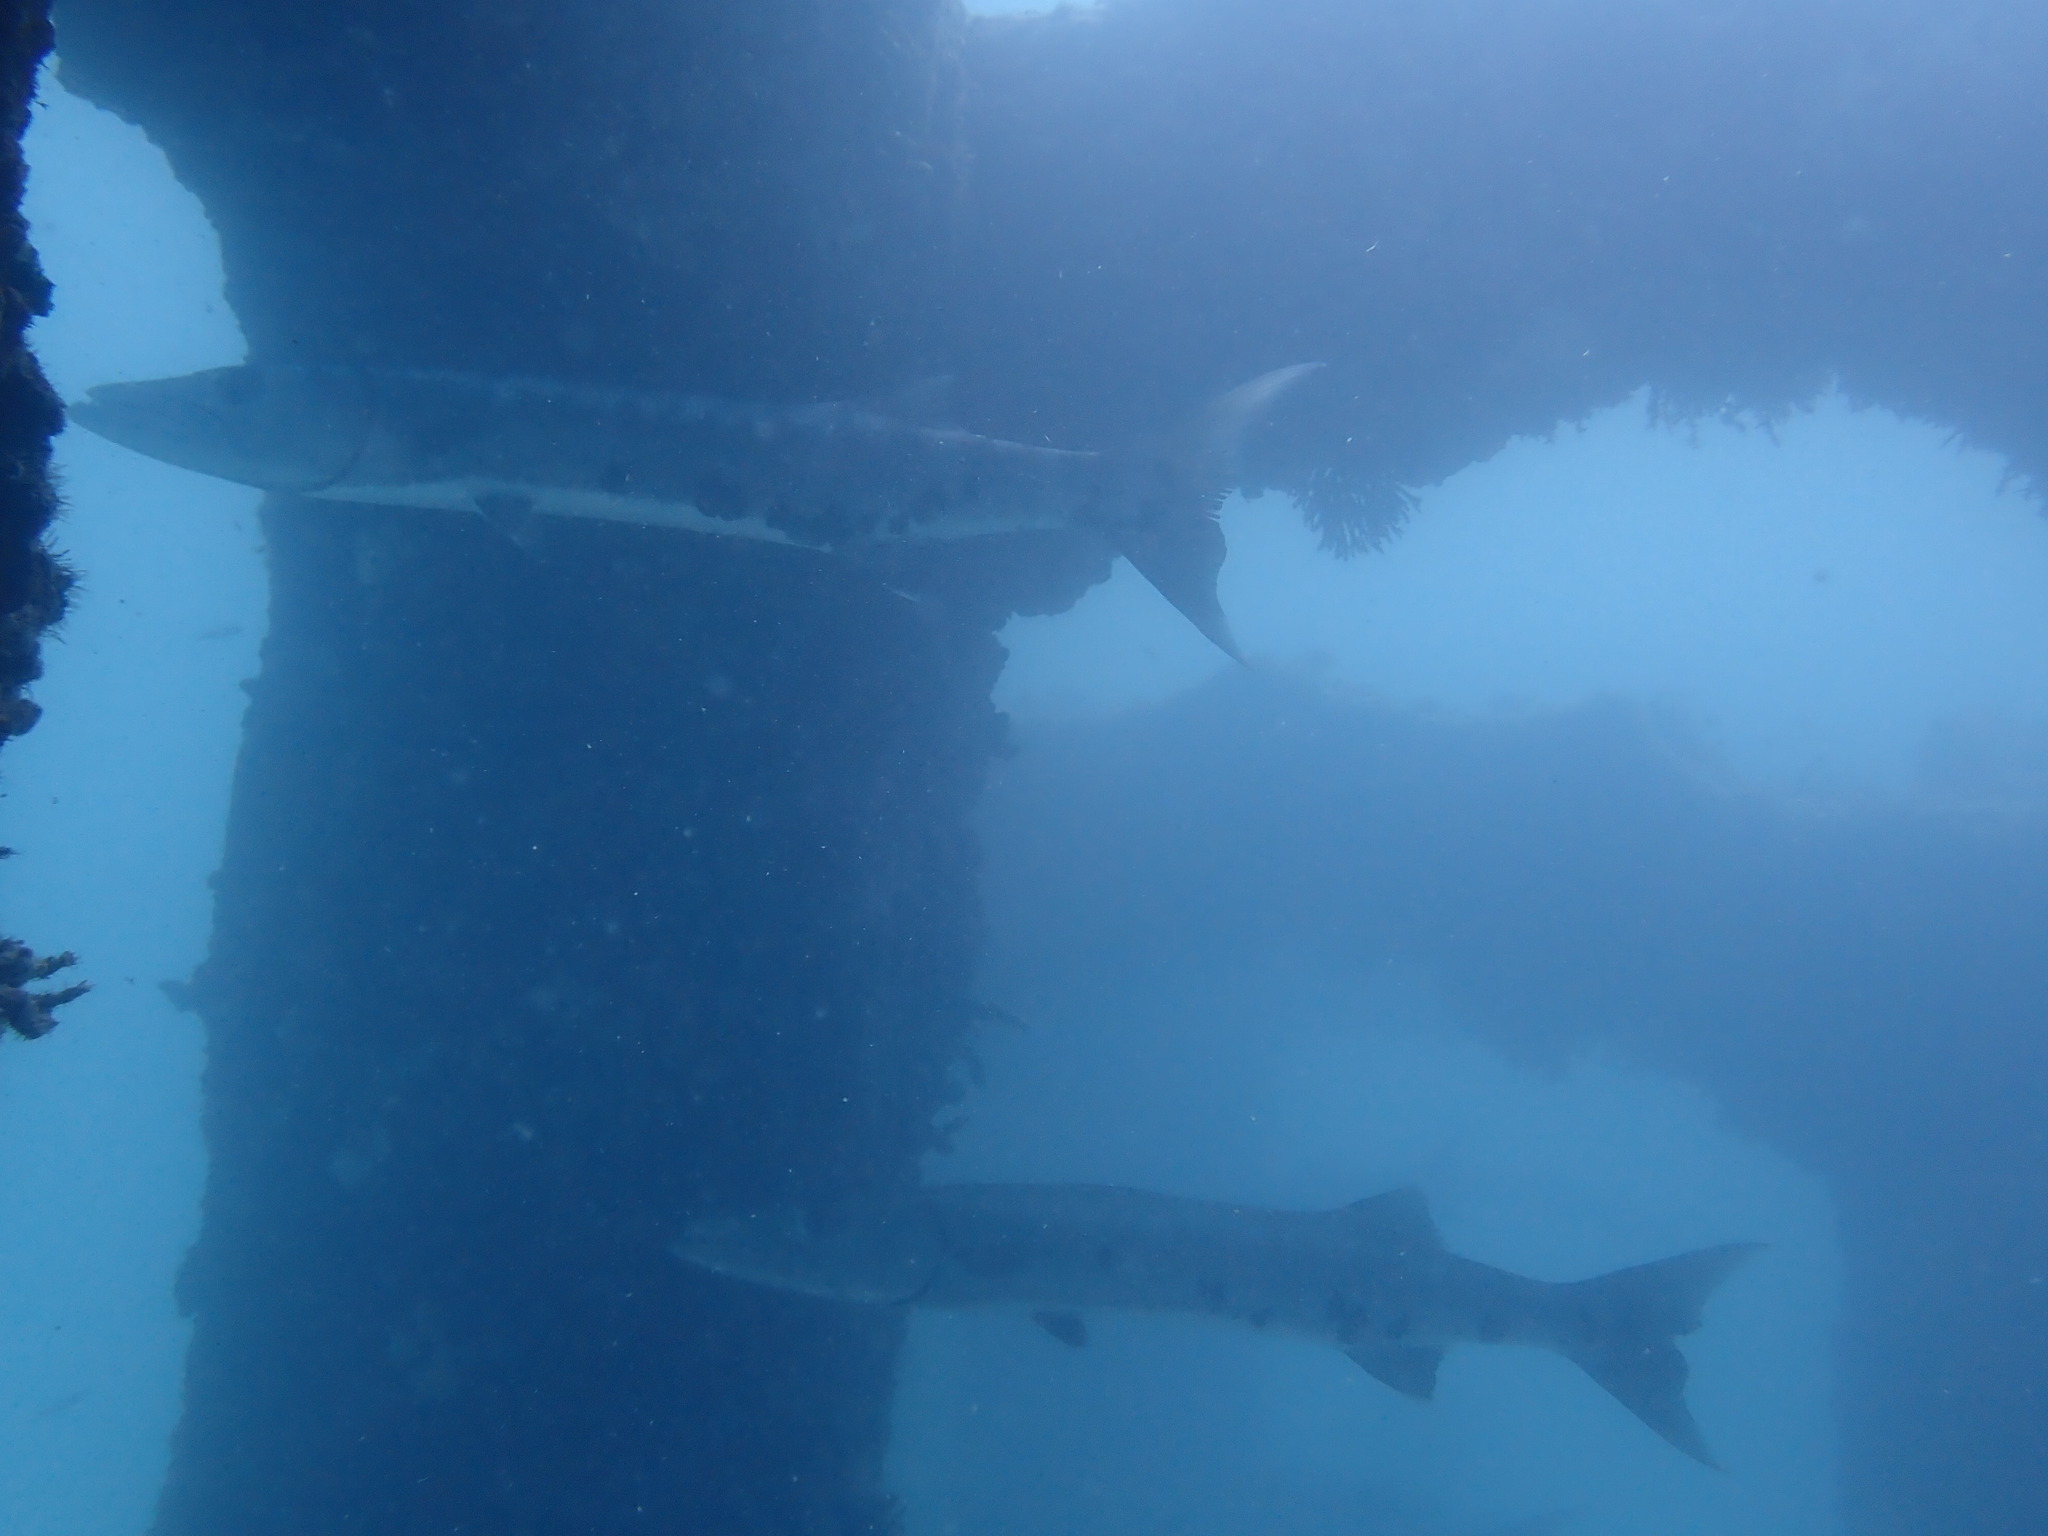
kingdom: Animalia
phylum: Chordata
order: Perciformes
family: Sphyraenidae
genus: Sphyraena
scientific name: Sphyraena barracuda
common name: Great barracuda
